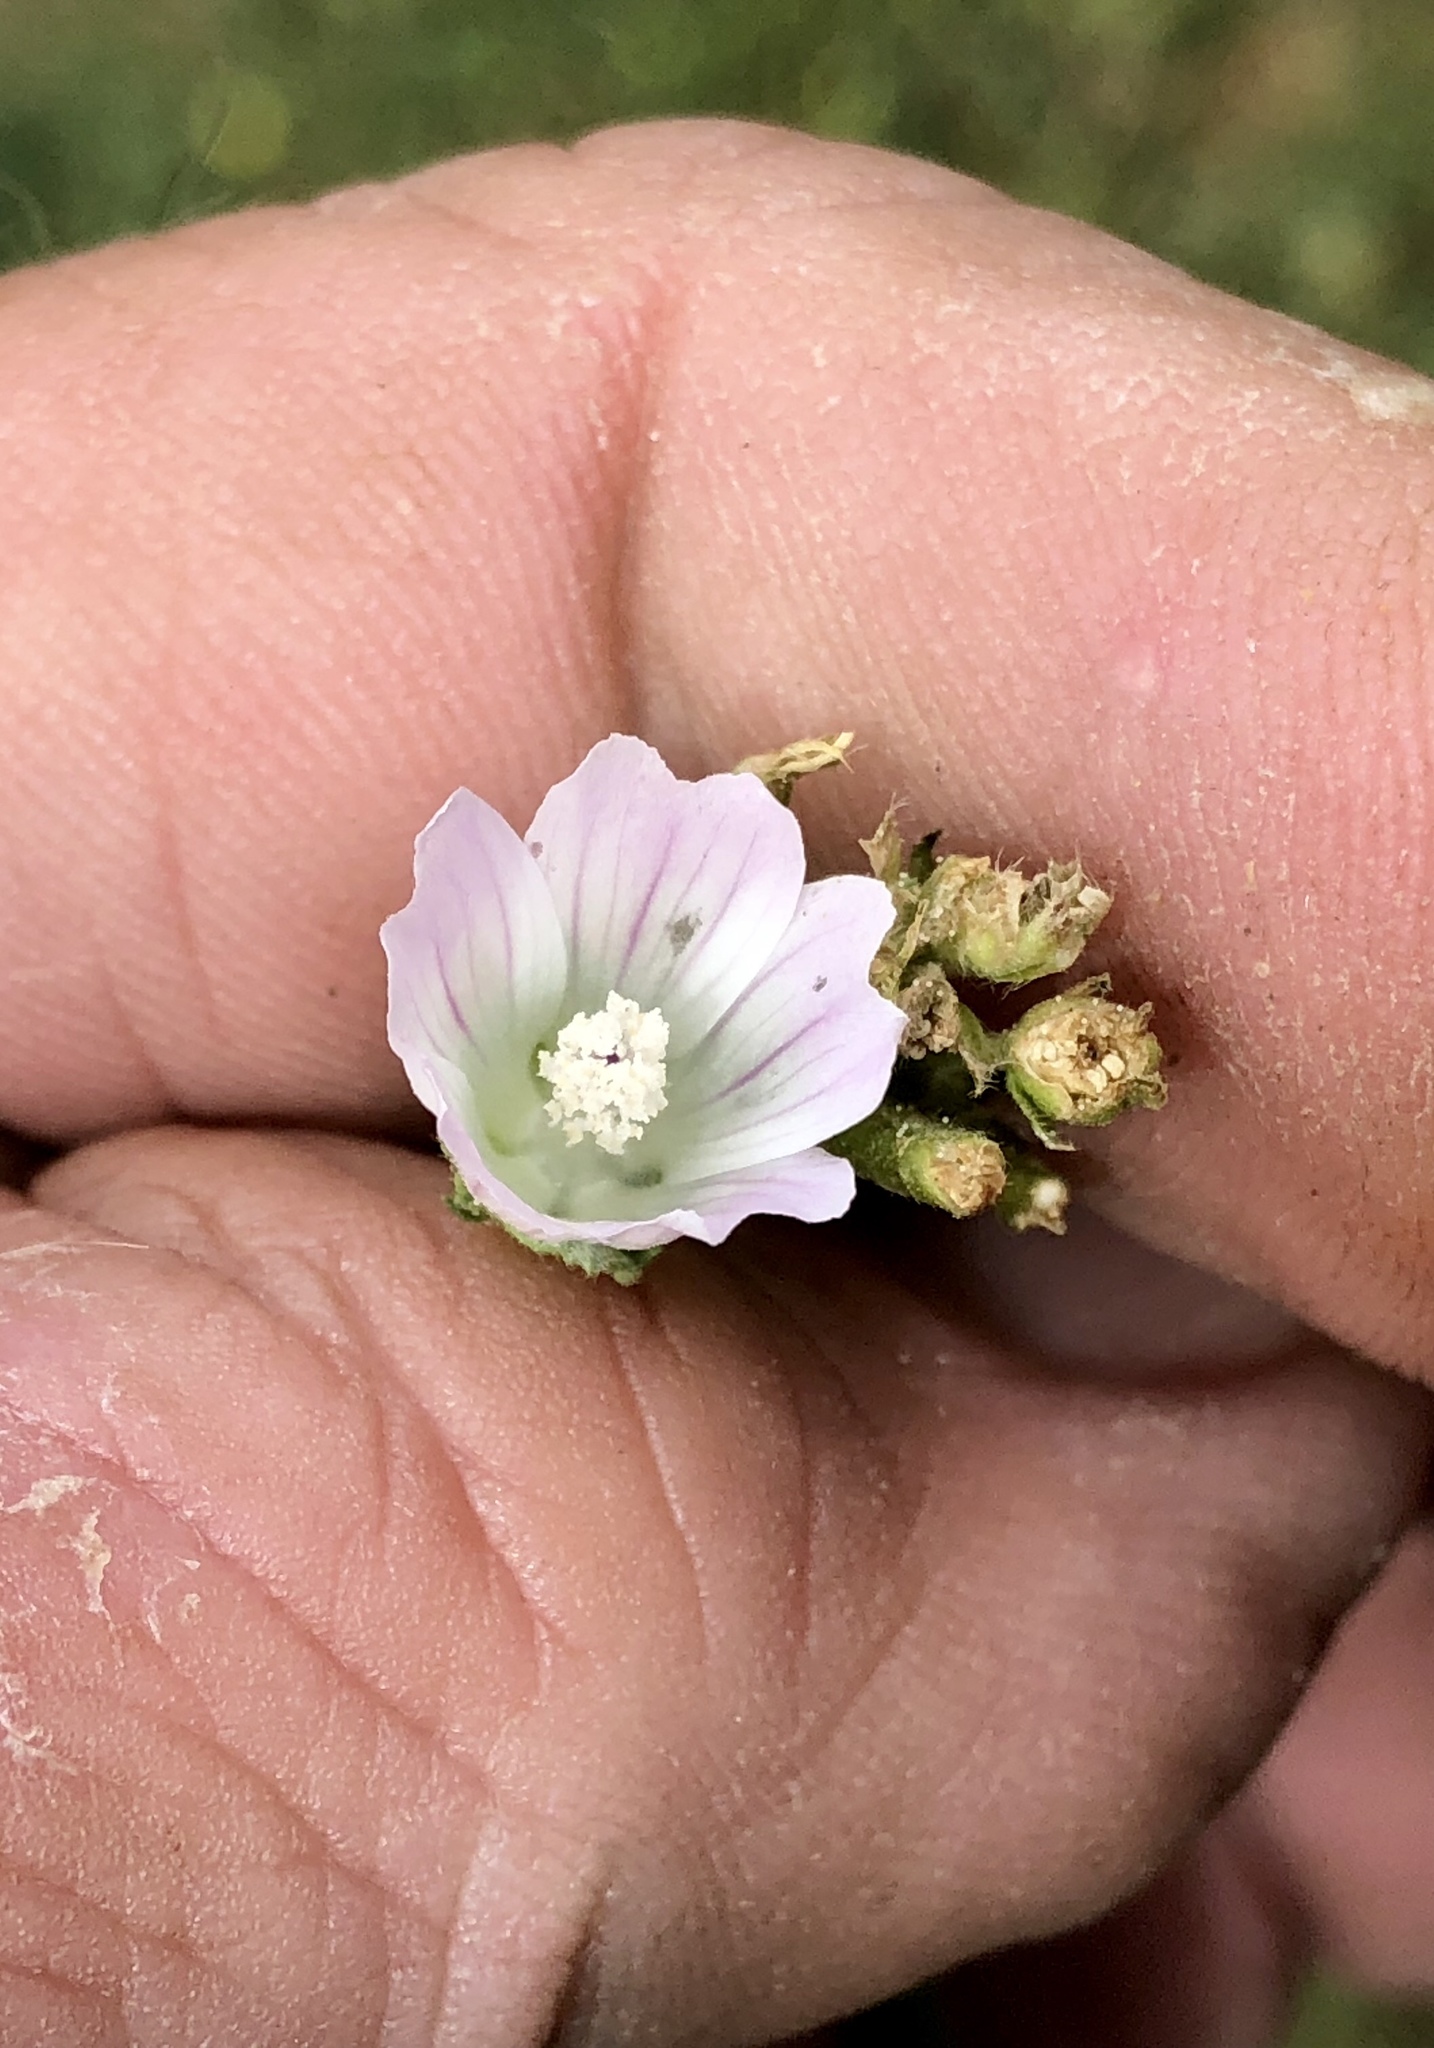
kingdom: Plantae
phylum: Tracheophyta
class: Magnoliopsida
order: Malvales
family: Malvaceae
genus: Malva
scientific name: Malva neglecta
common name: Common mallow
